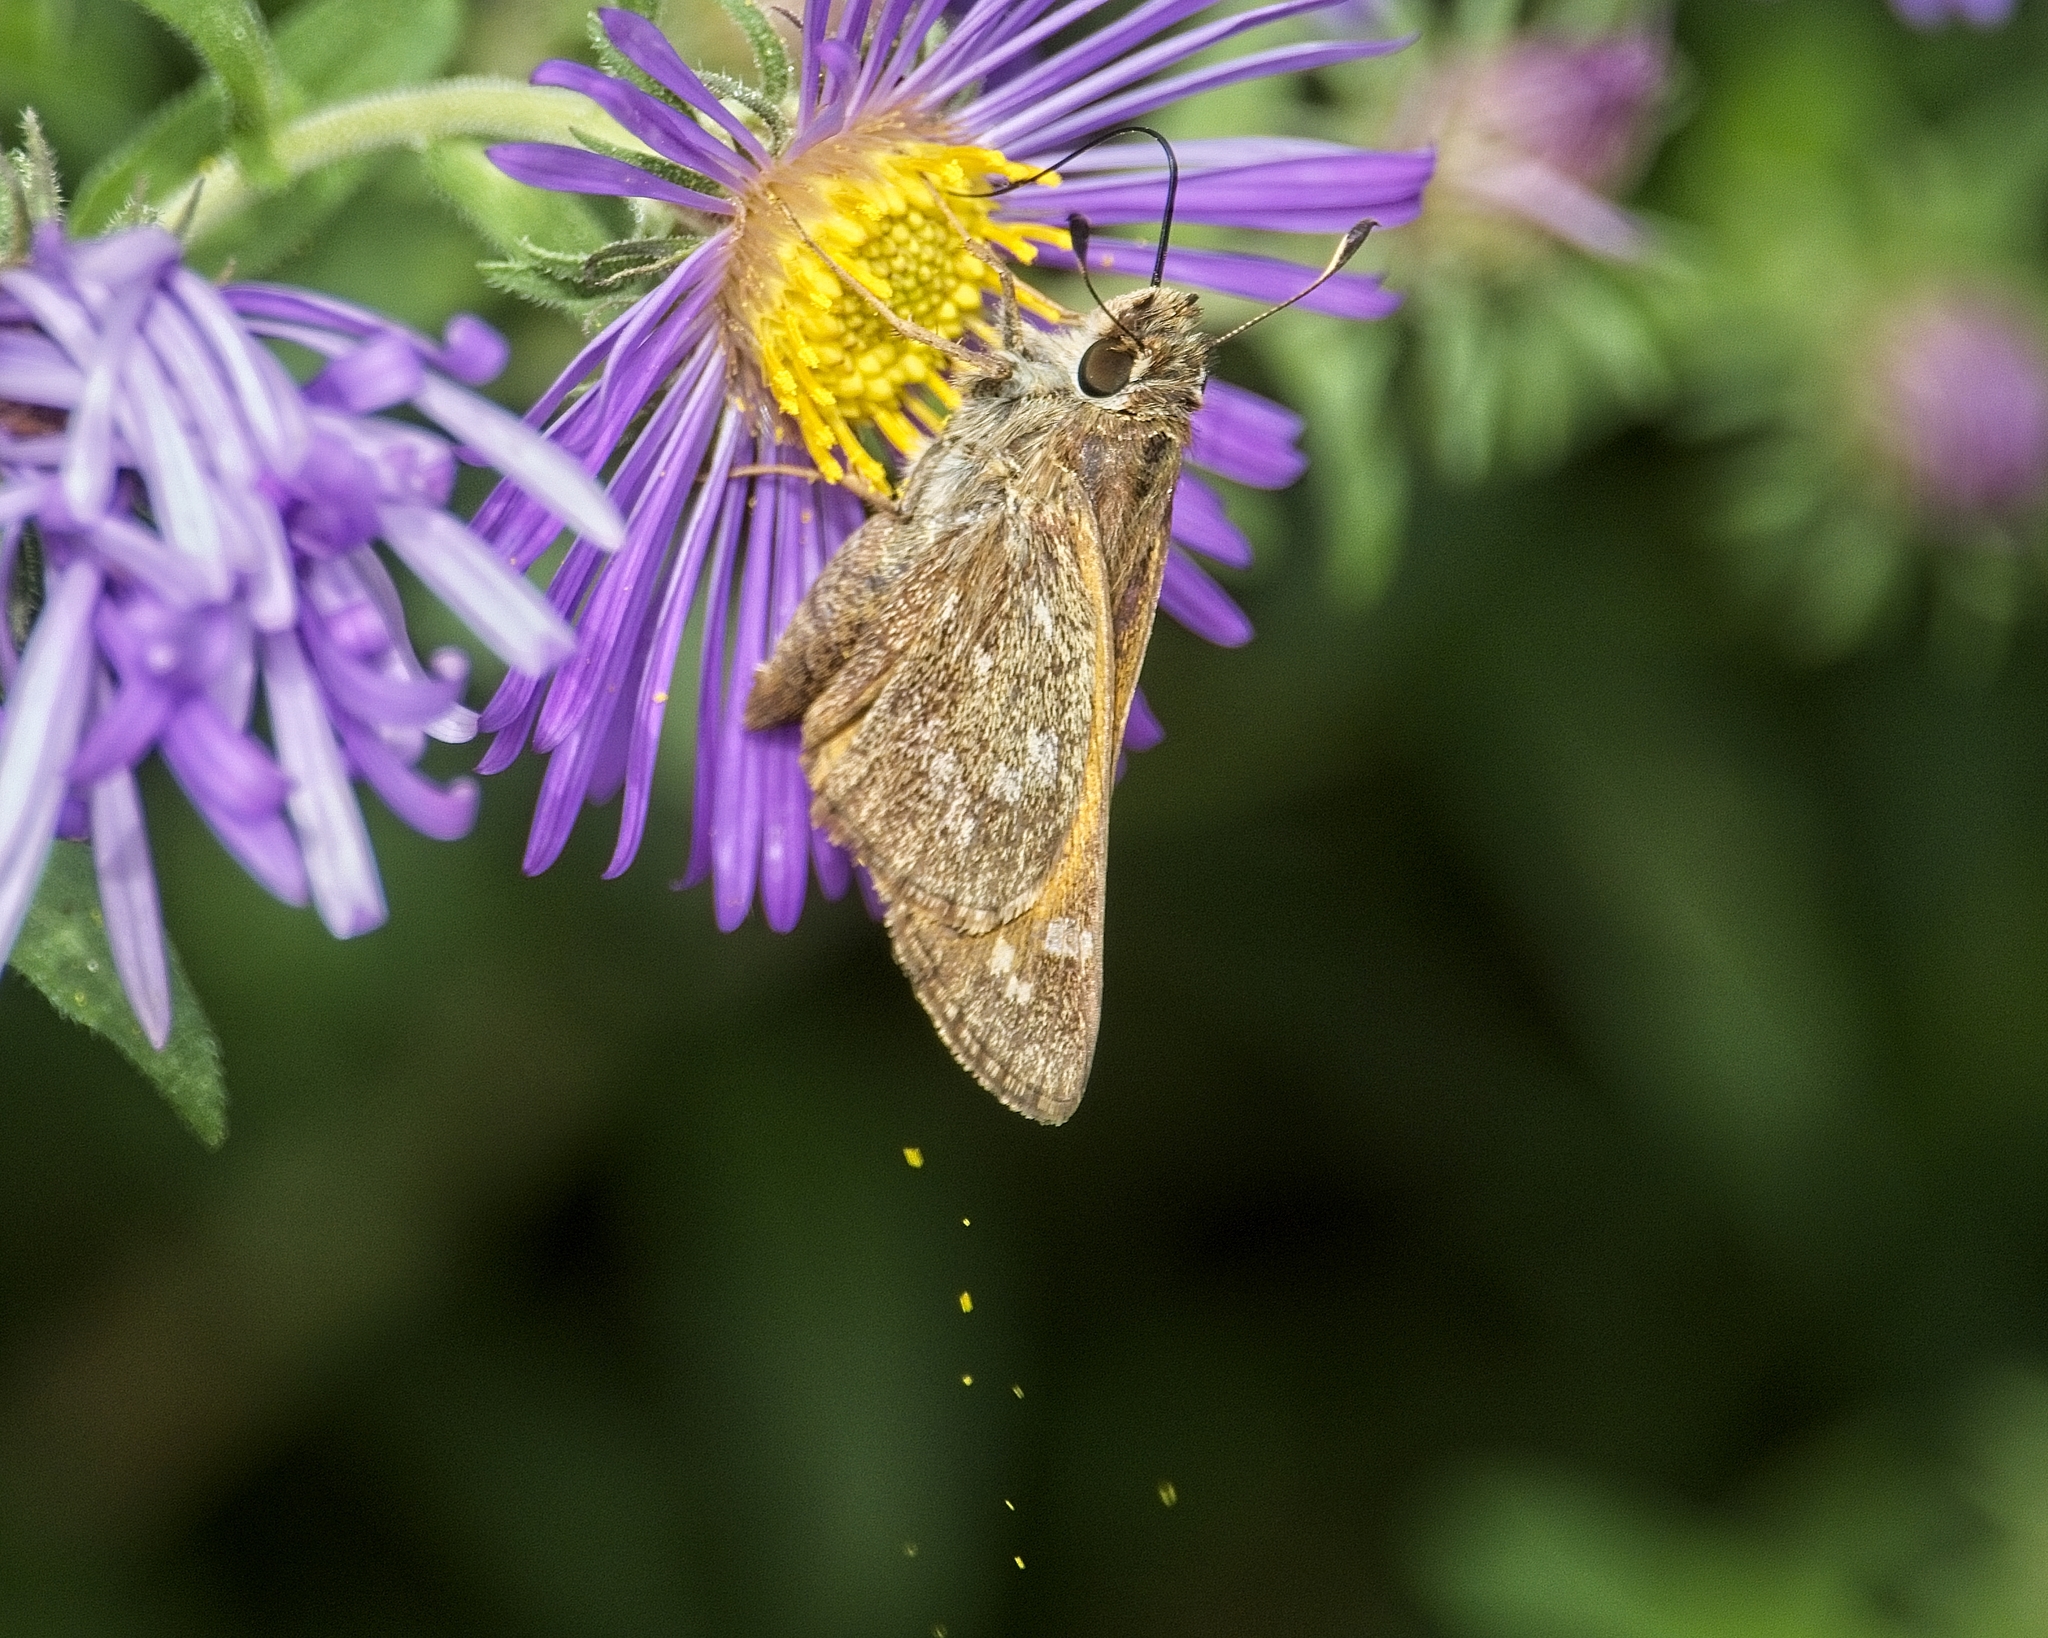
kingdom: Animalia
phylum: Arthropoda
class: Insecta
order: Lepidoptera
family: Hesperiidae
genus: Atalopedes
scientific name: Atalopedes
